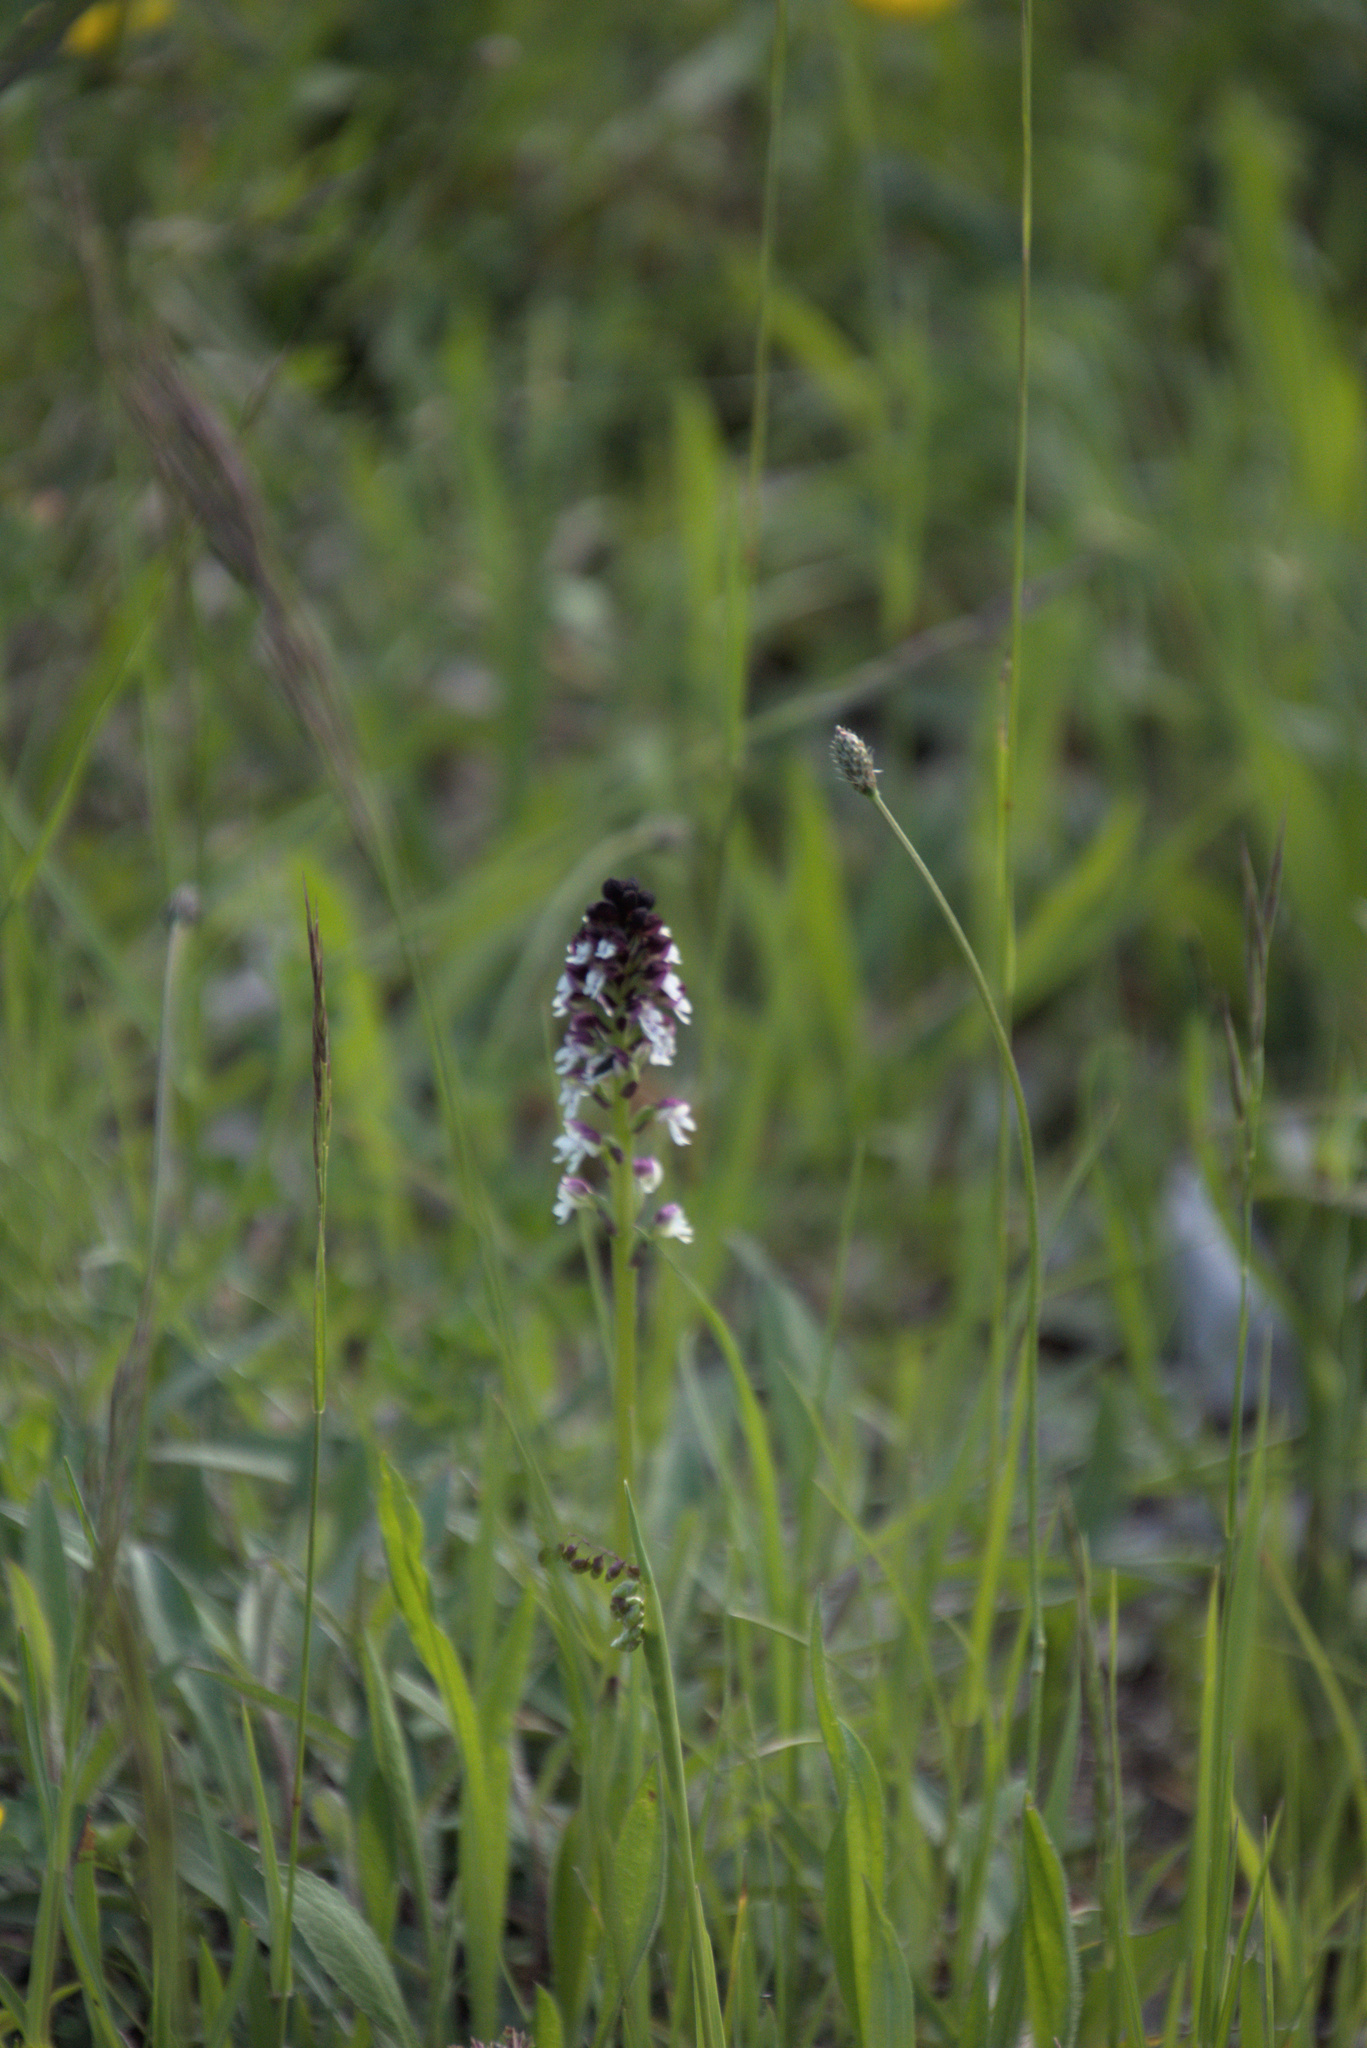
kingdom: Plantae
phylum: Tracheophyta
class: Liliopsida
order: Asparagales
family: Orchidaceae
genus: Neotinea
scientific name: Neotinea ustulata
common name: Burnt orchid
